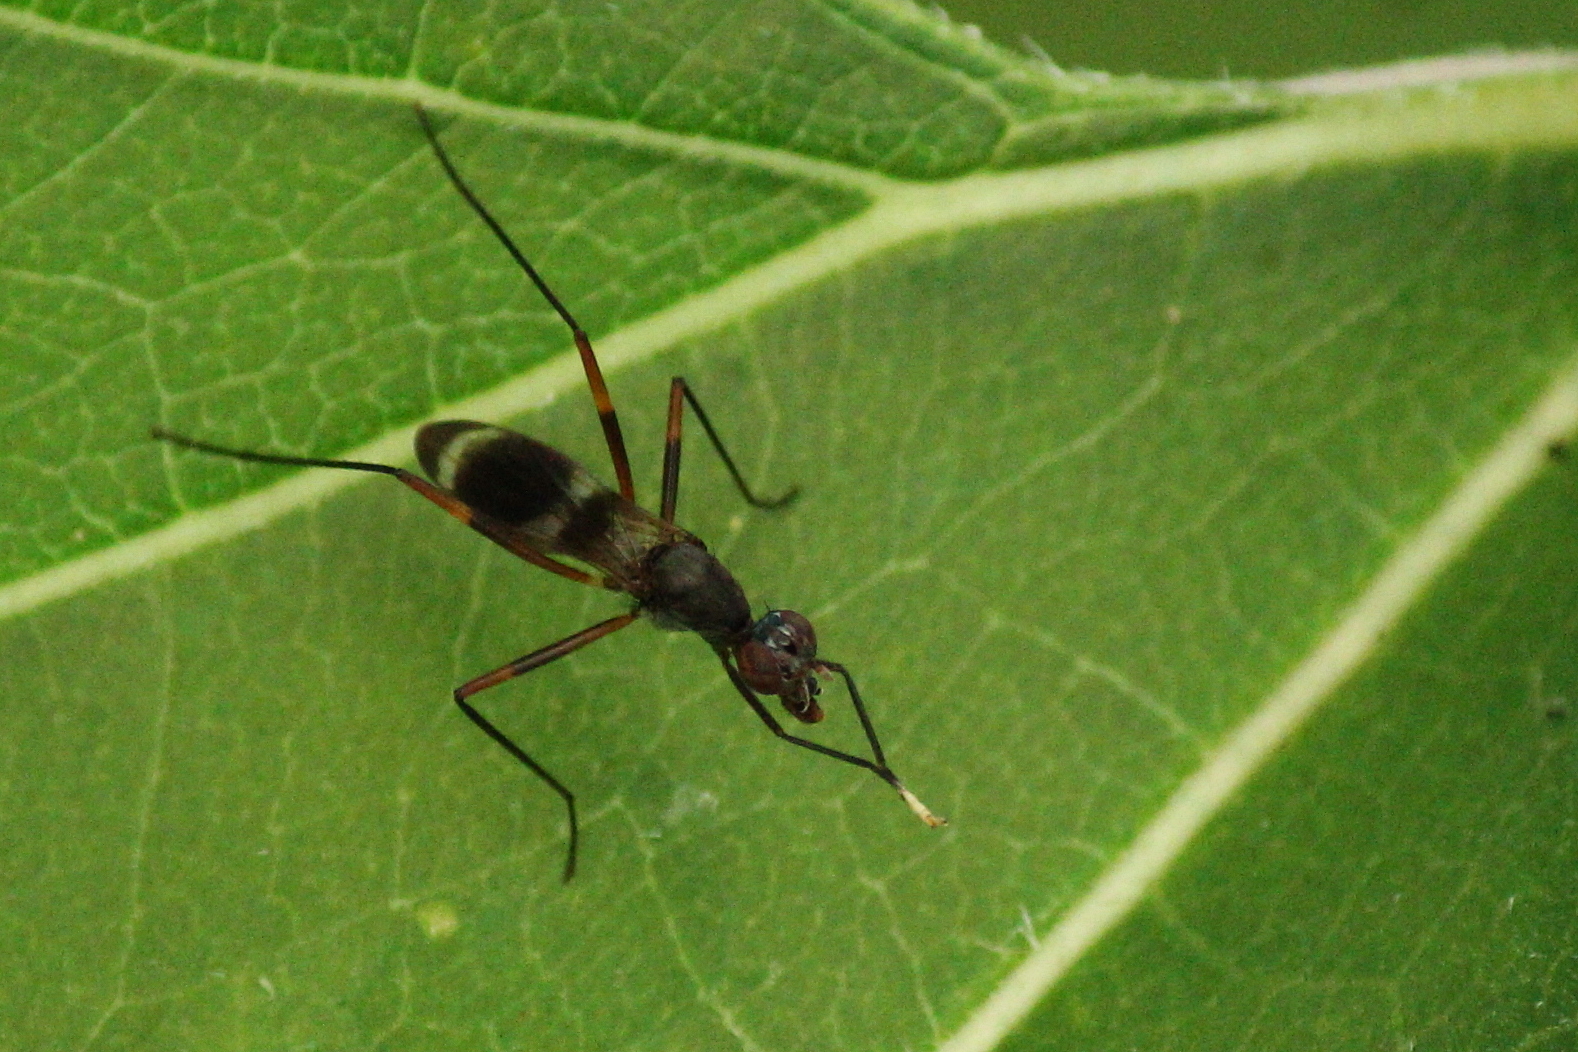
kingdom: Animalia
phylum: Arthropoda
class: Insecta
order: Diptera
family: Micropezidae
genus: Taeniaptera
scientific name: Taeniaptera trivittata
